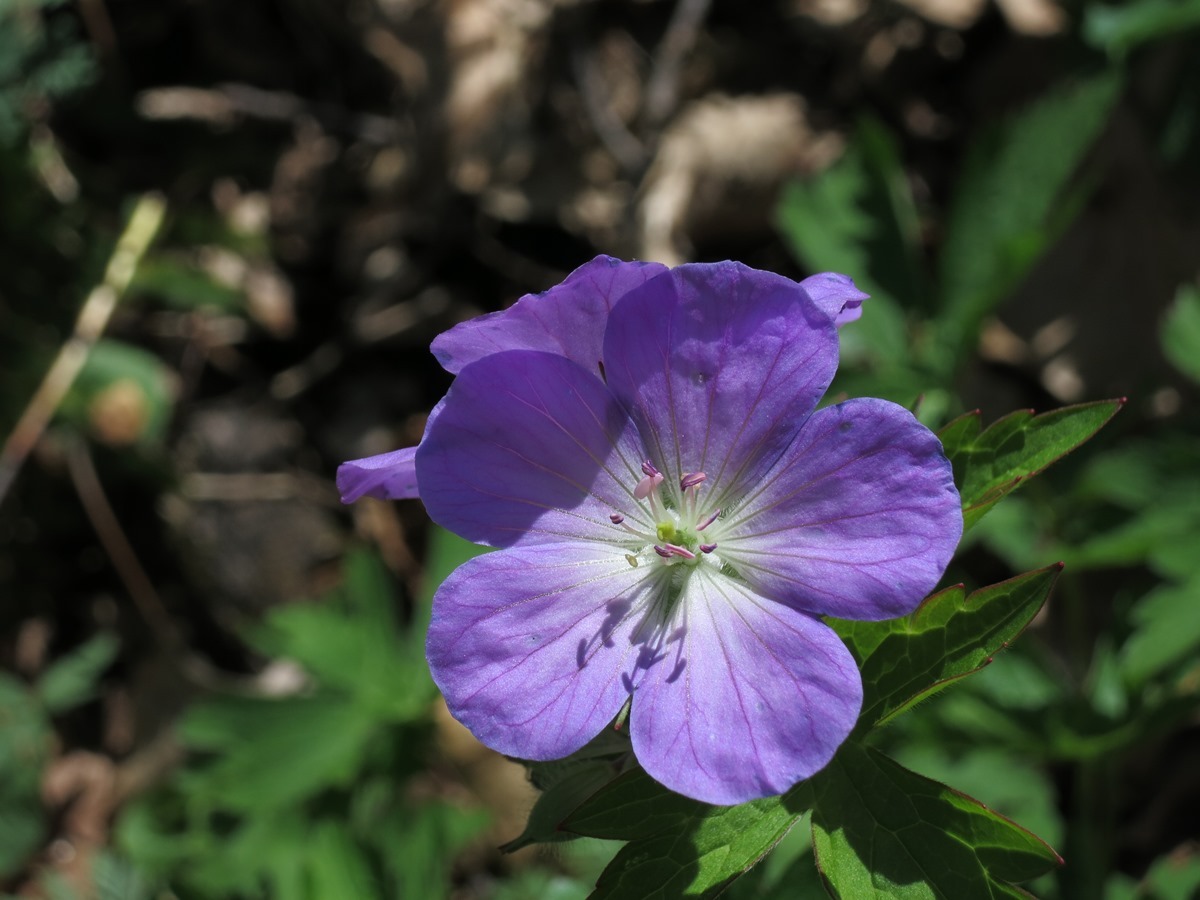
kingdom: Plantae
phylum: Tracheophyta
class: Magnoliopsida
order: Geraniales
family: Geraniaceae
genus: Geranium
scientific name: Geranium maculatum
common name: Spotted geranium
